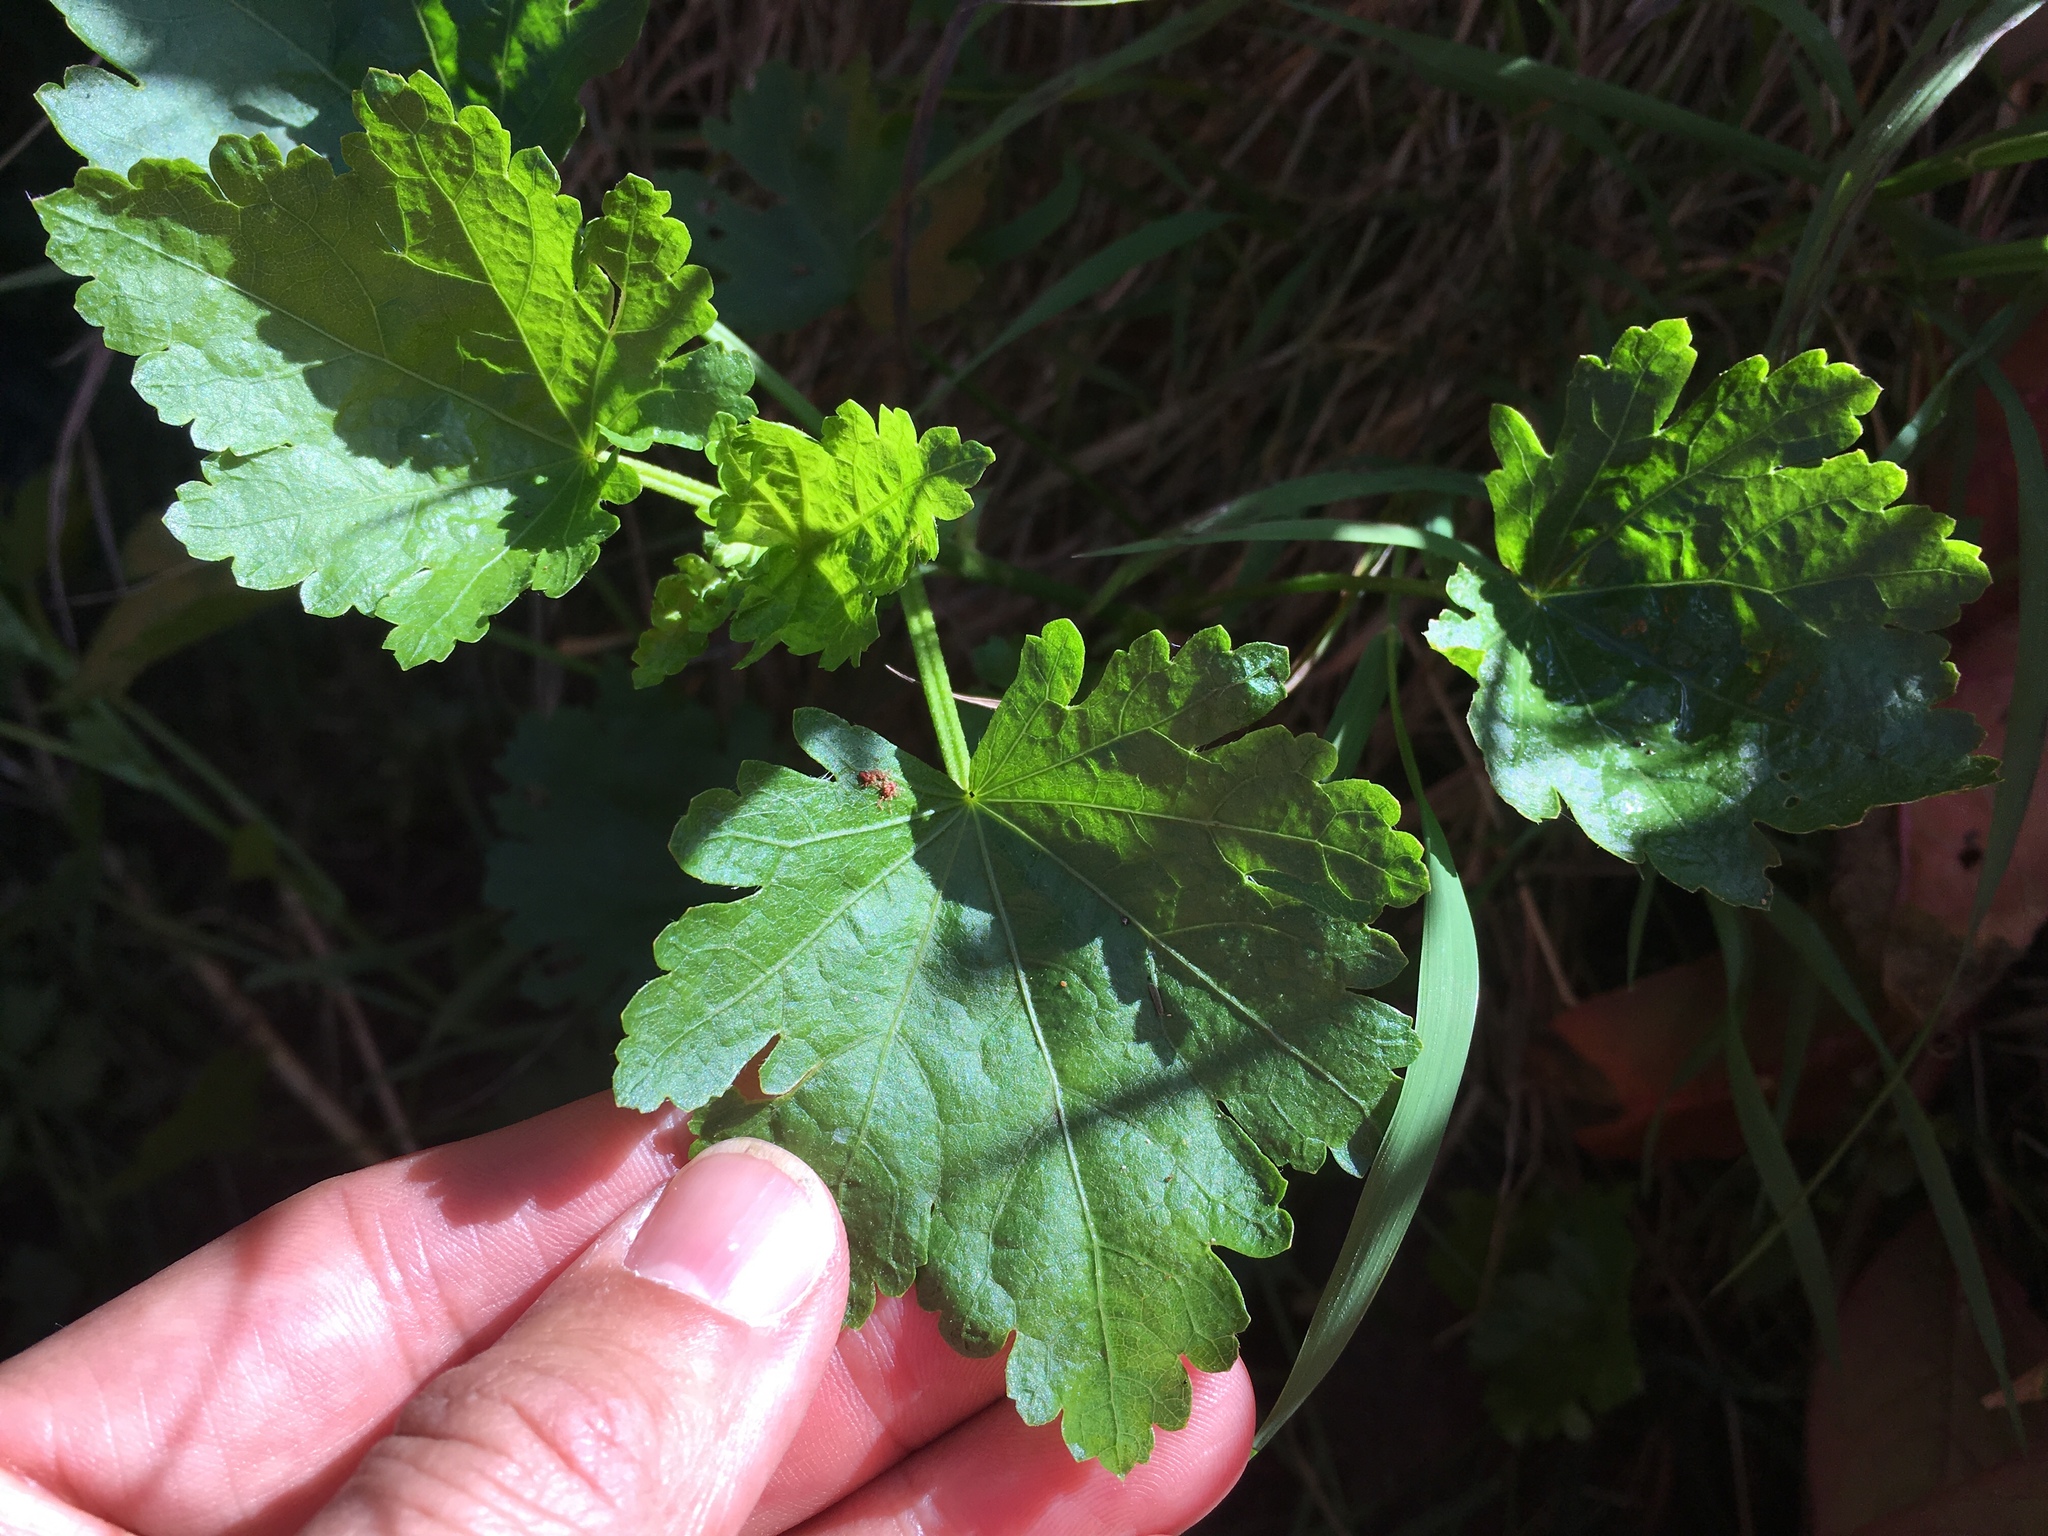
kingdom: Plantae
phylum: Tracheophyta
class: Magnoliopsida
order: Malvales
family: Malvaceae
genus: Modiola
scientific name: Modiola caroliniana
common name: Carolina bristlemallow
